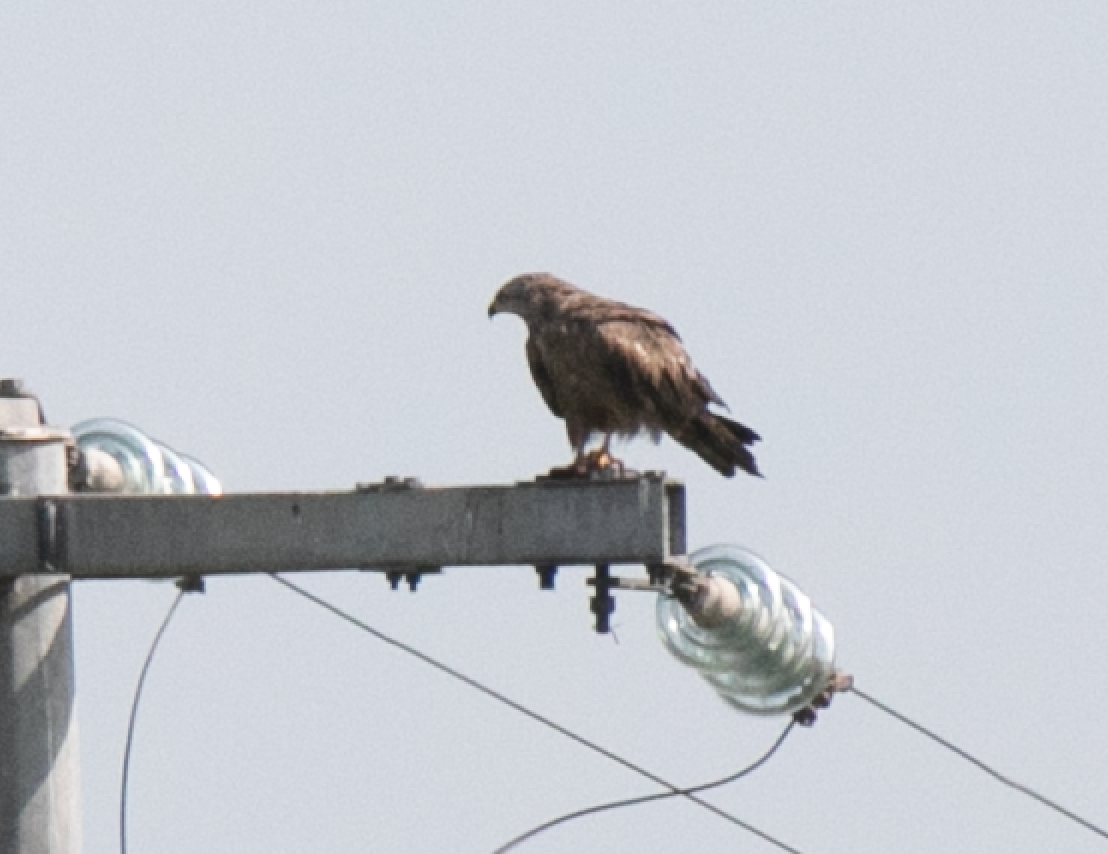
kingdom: Animalia
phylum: Chordata
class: Aves
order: Accipitriformes
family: Accipitridae
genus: Milvus
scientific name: Milvus migrans
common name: Black kite
